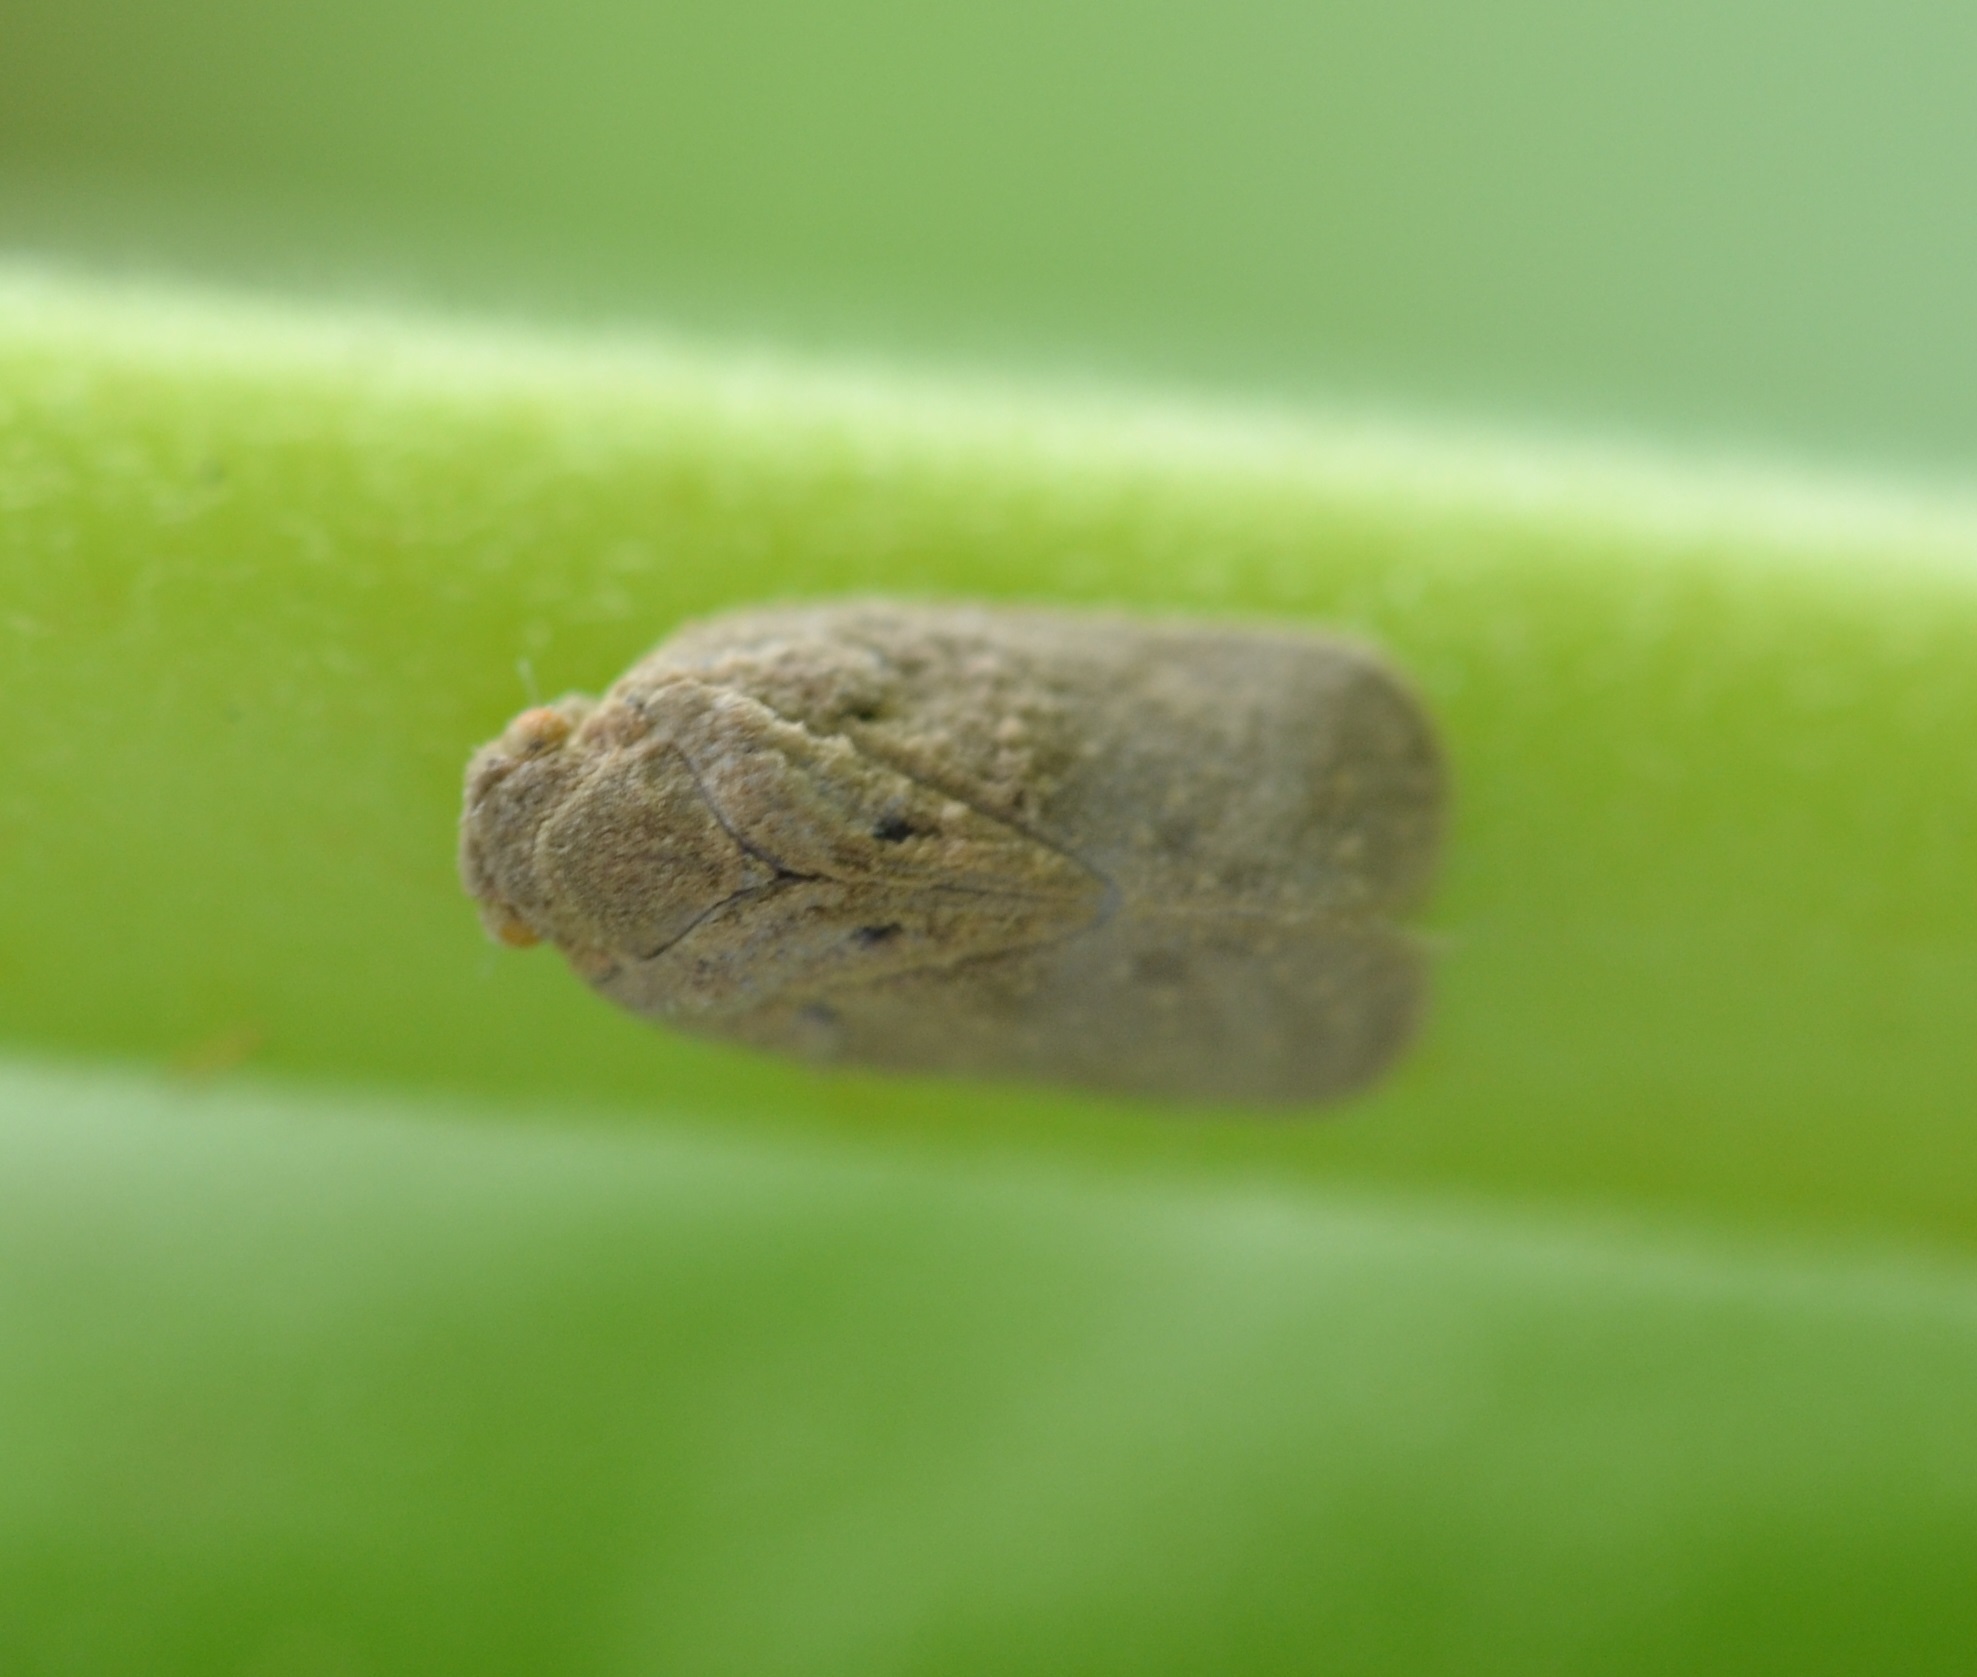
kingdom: Animalia
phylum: Arthropoda
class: Insecta
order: Hemiptera
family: Flatidae
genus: Melormenis
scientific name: Melormenis basalis
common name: Puerto rican planthopper
